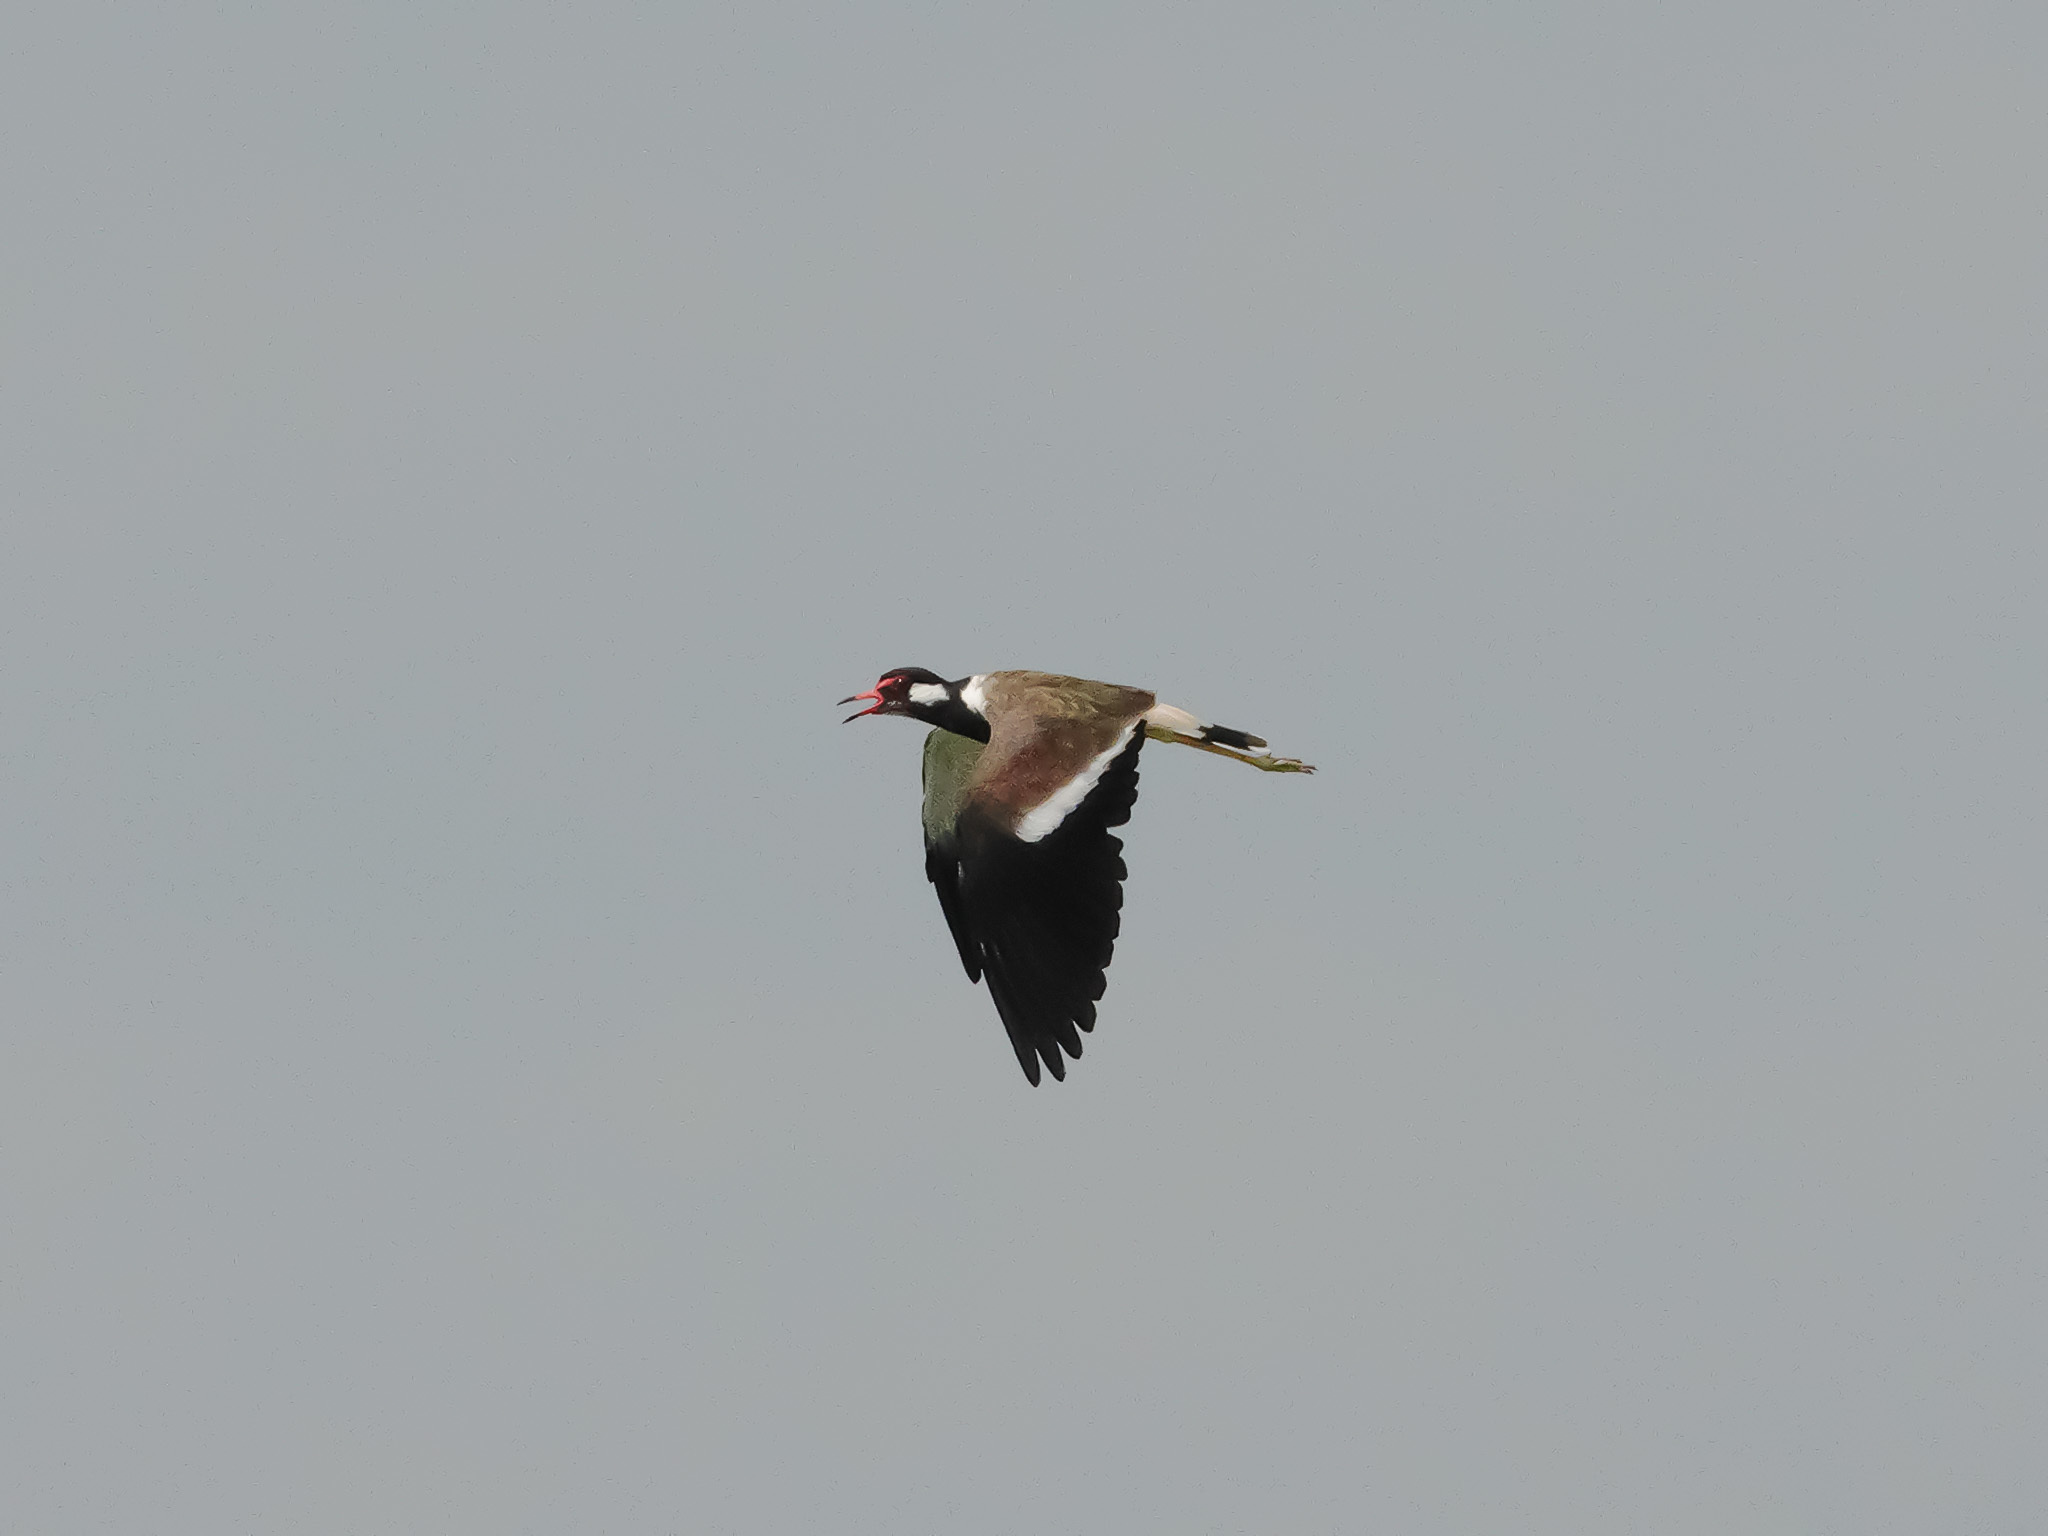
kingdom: Animalia
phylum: Chordata
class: Aves
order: Charadriiformes
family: Charadriidae
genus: Vanellus
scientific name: Vanellus indicus
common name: Red-wattled lapwing
